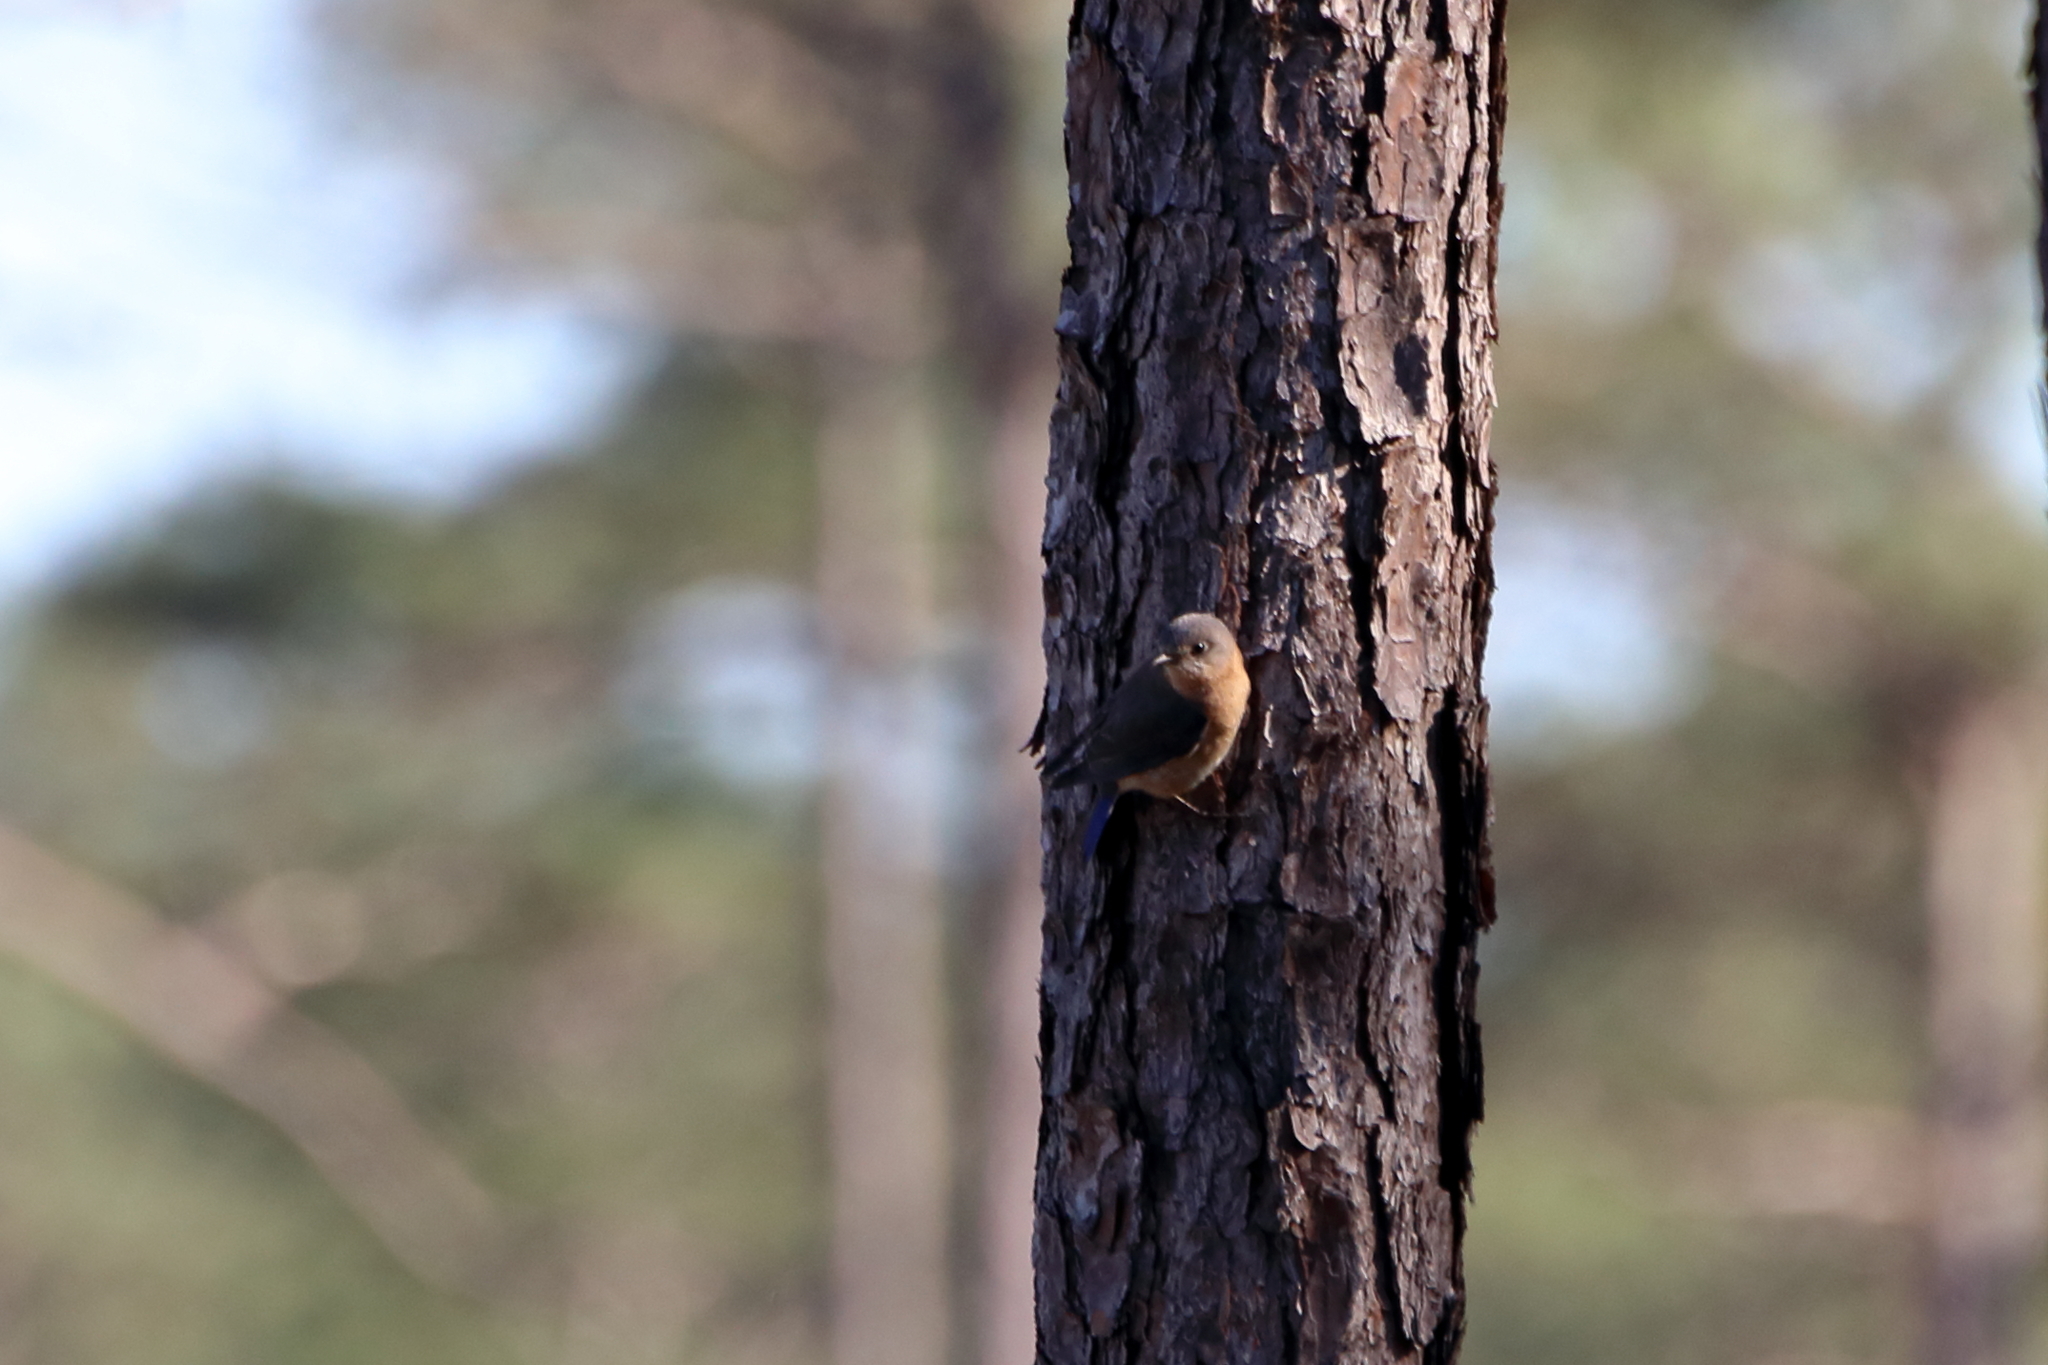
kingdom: Animalia
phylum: Chordata
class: Aves
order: Passeriformes
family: Turdidae
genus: Sialia
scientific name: Sialia sialis
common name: Eastern bluebird
